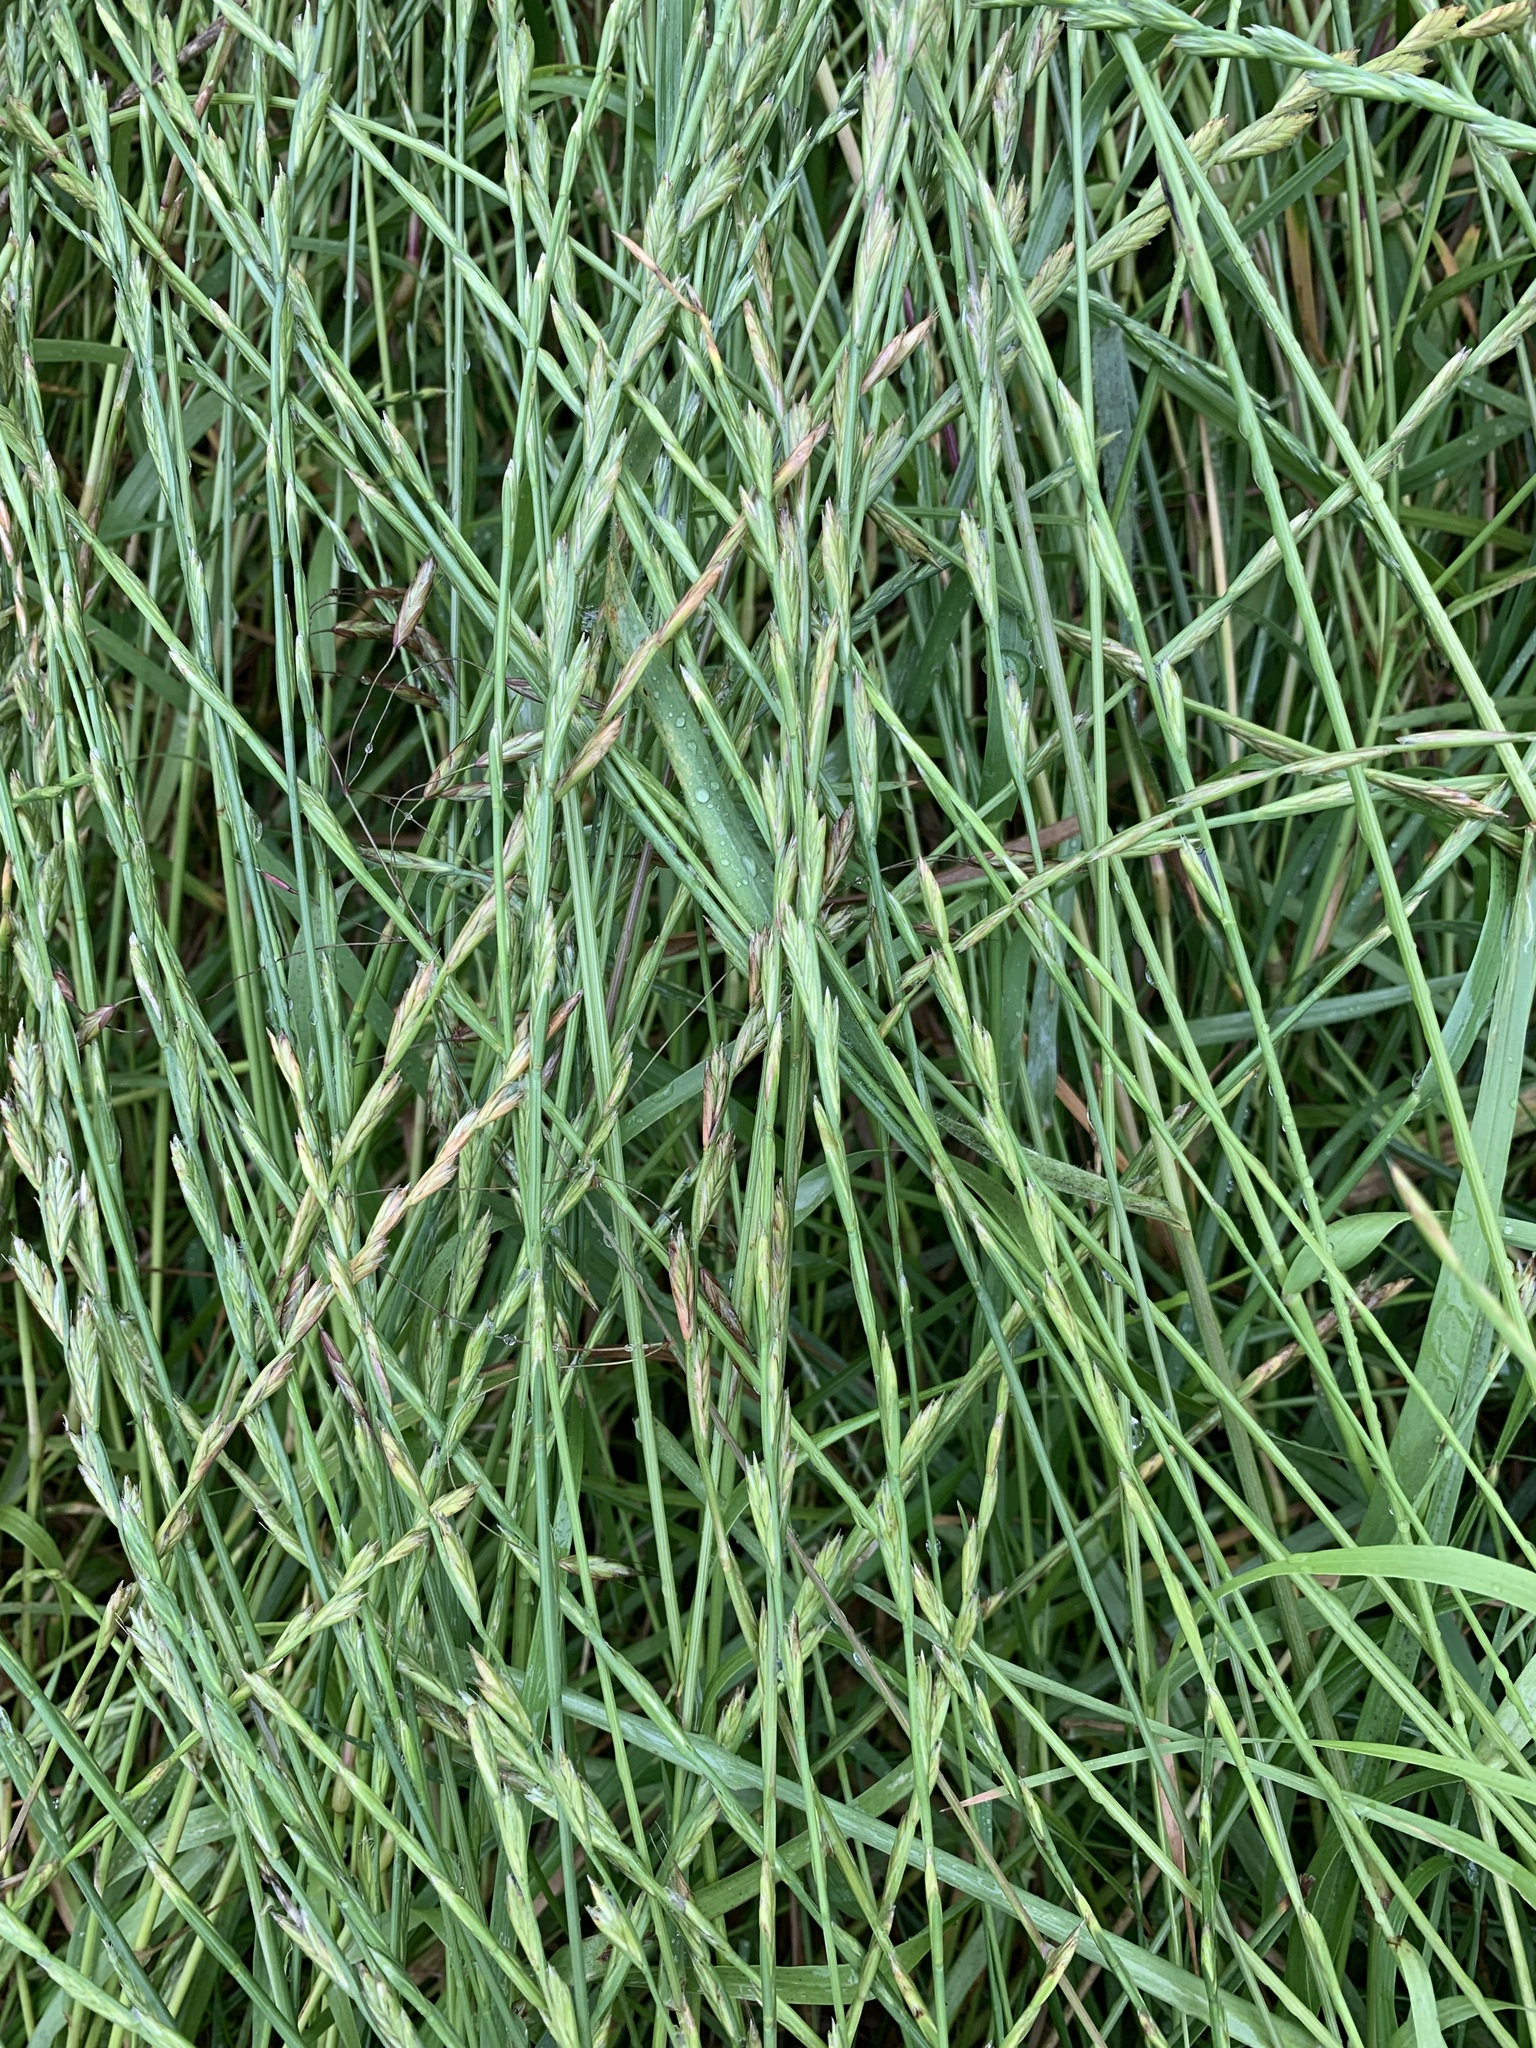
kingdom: Plantae
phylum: Tracheophyta
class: Liliopsida
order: Poales
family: Poaceae
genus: Lolium
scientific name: Lolium perenne
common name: Perennial ryegrass
